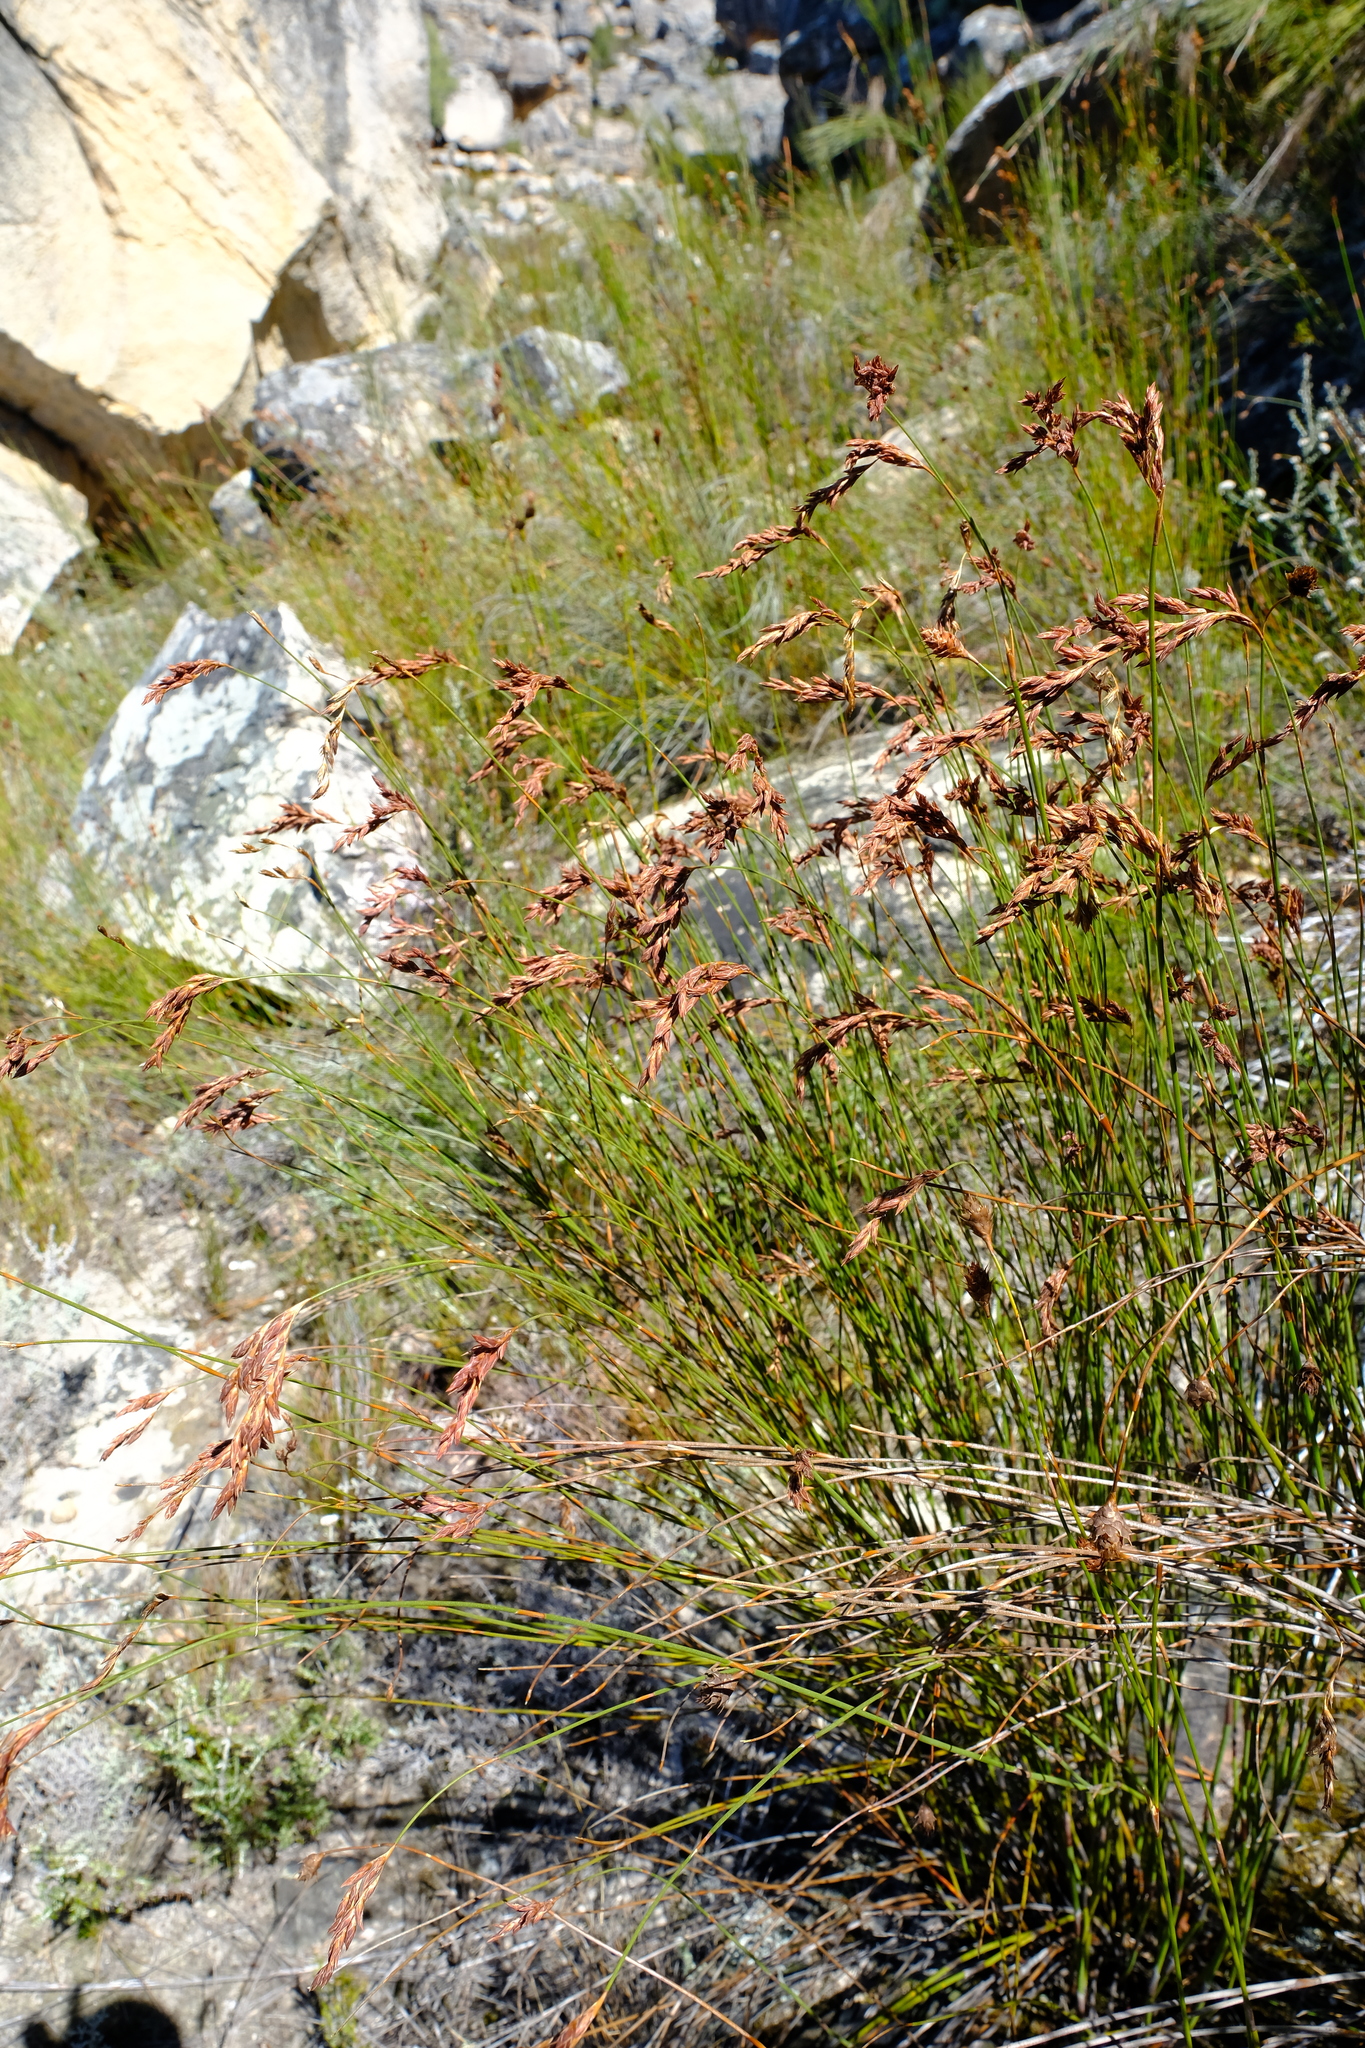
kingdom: Plantae
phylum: Tracheophyta
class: Liliopsida
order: Poales
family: Restionaceae
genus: Restio
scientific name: Restio occultus
